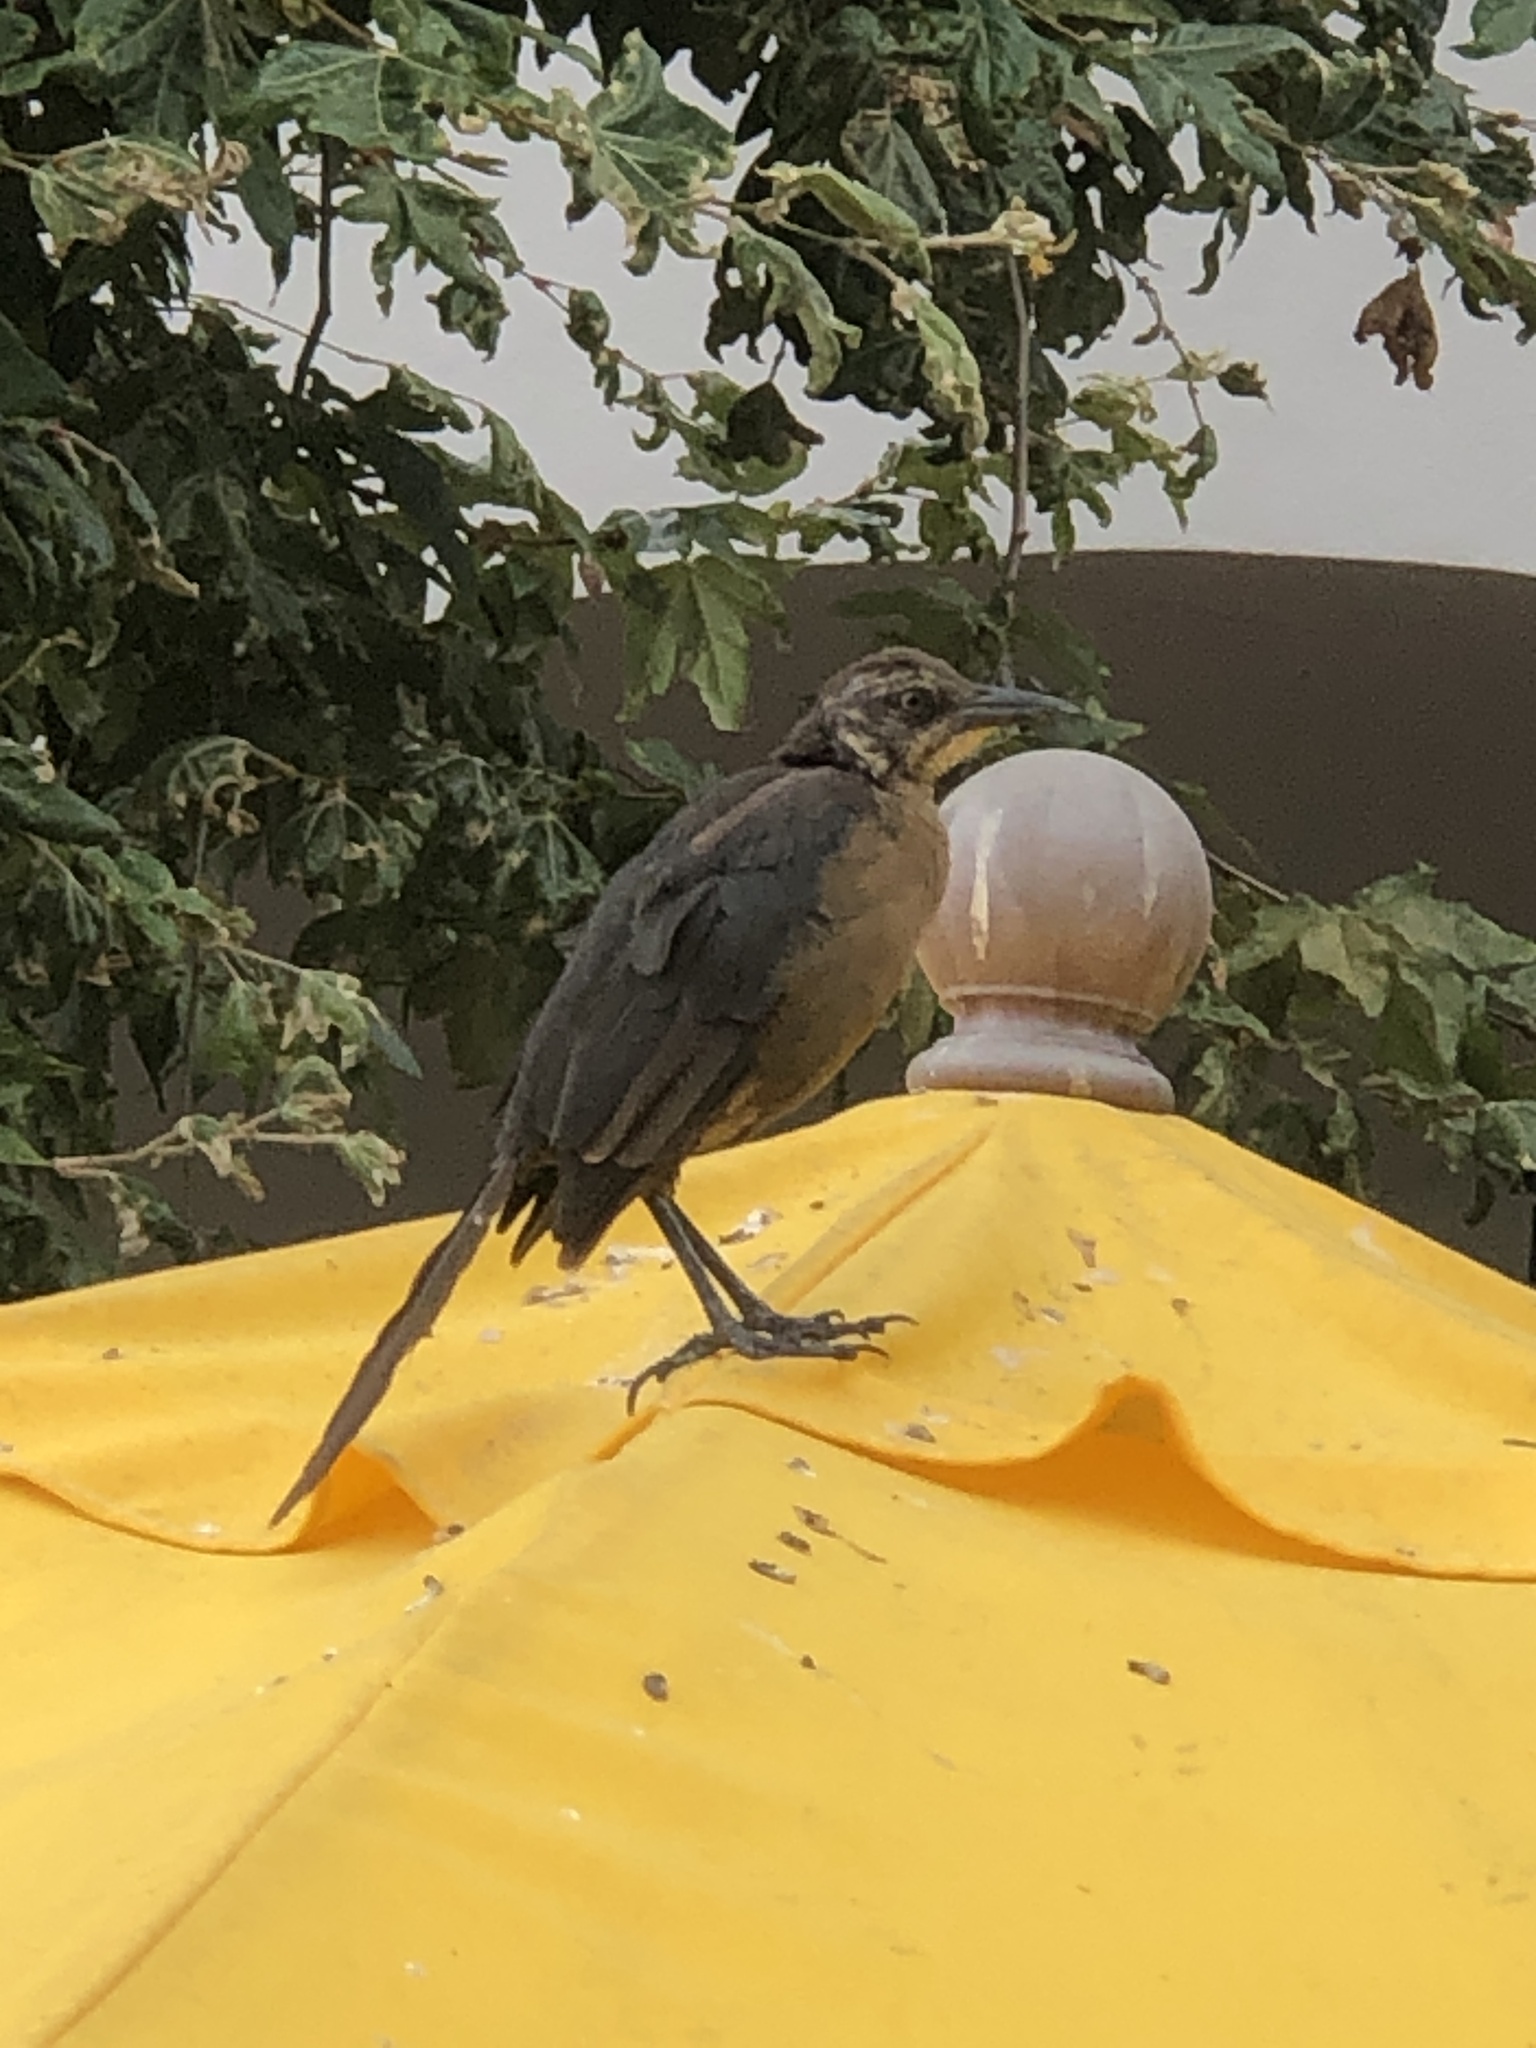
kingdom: Animalia
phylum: Chordata
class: Aves
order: Passeriformes
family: Icteridae
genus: Quiscalus
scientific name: Quiscalus mexicanus
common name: Great-tailed grackle
